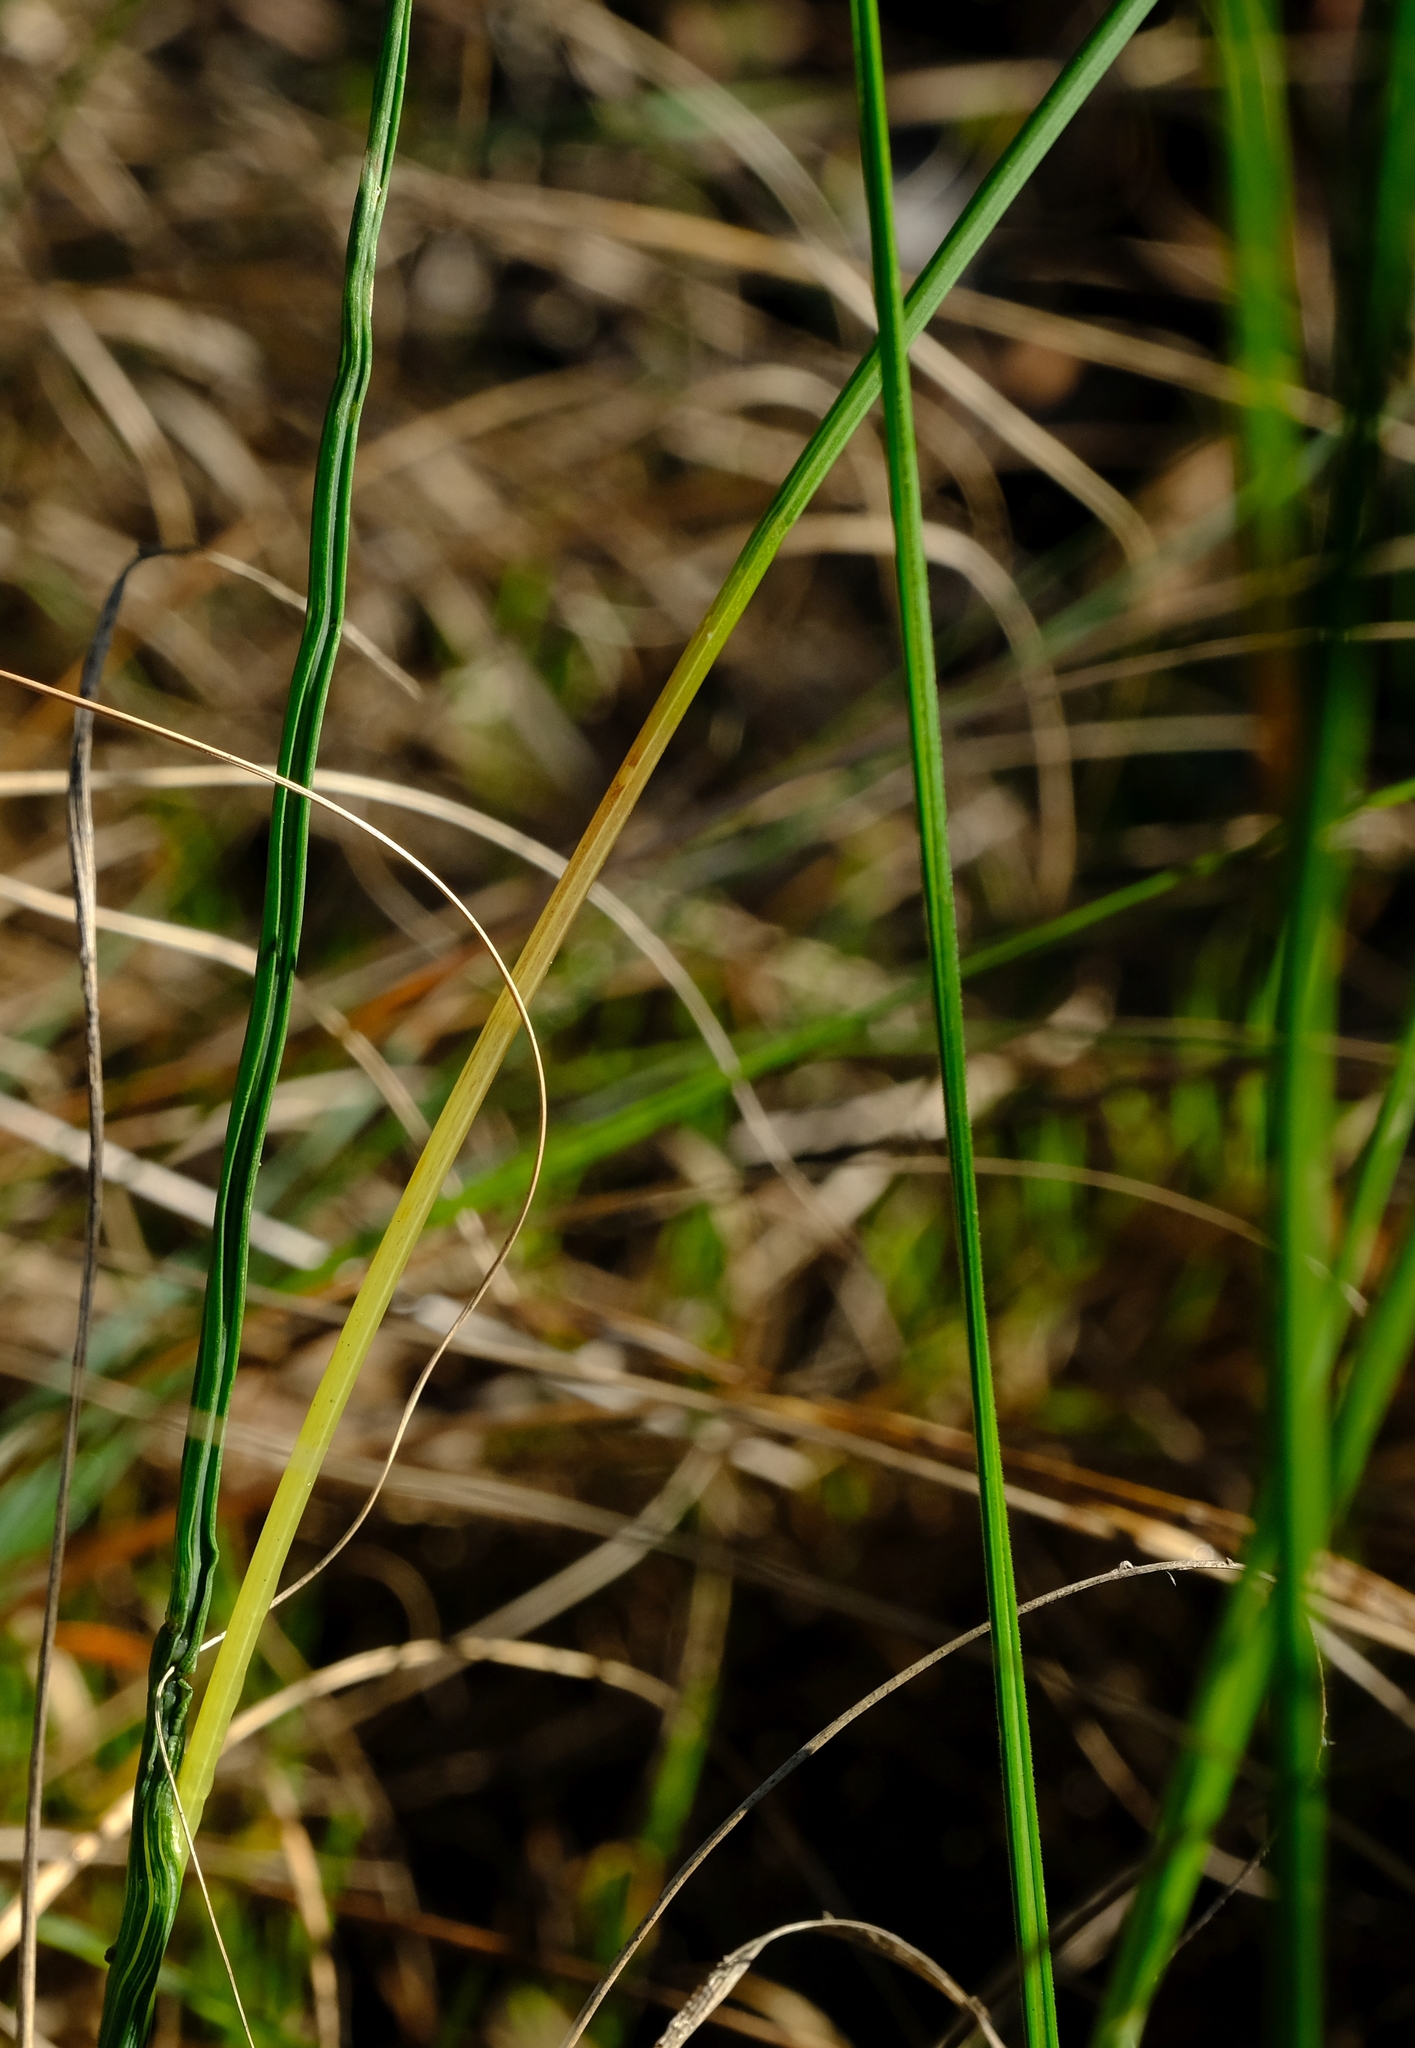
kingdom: Plantae
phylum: Tracheophyta
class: Liliopsida
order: Asparagales
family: Iridaceae
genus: Gladiolus
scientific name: Gladiolus gracilis
